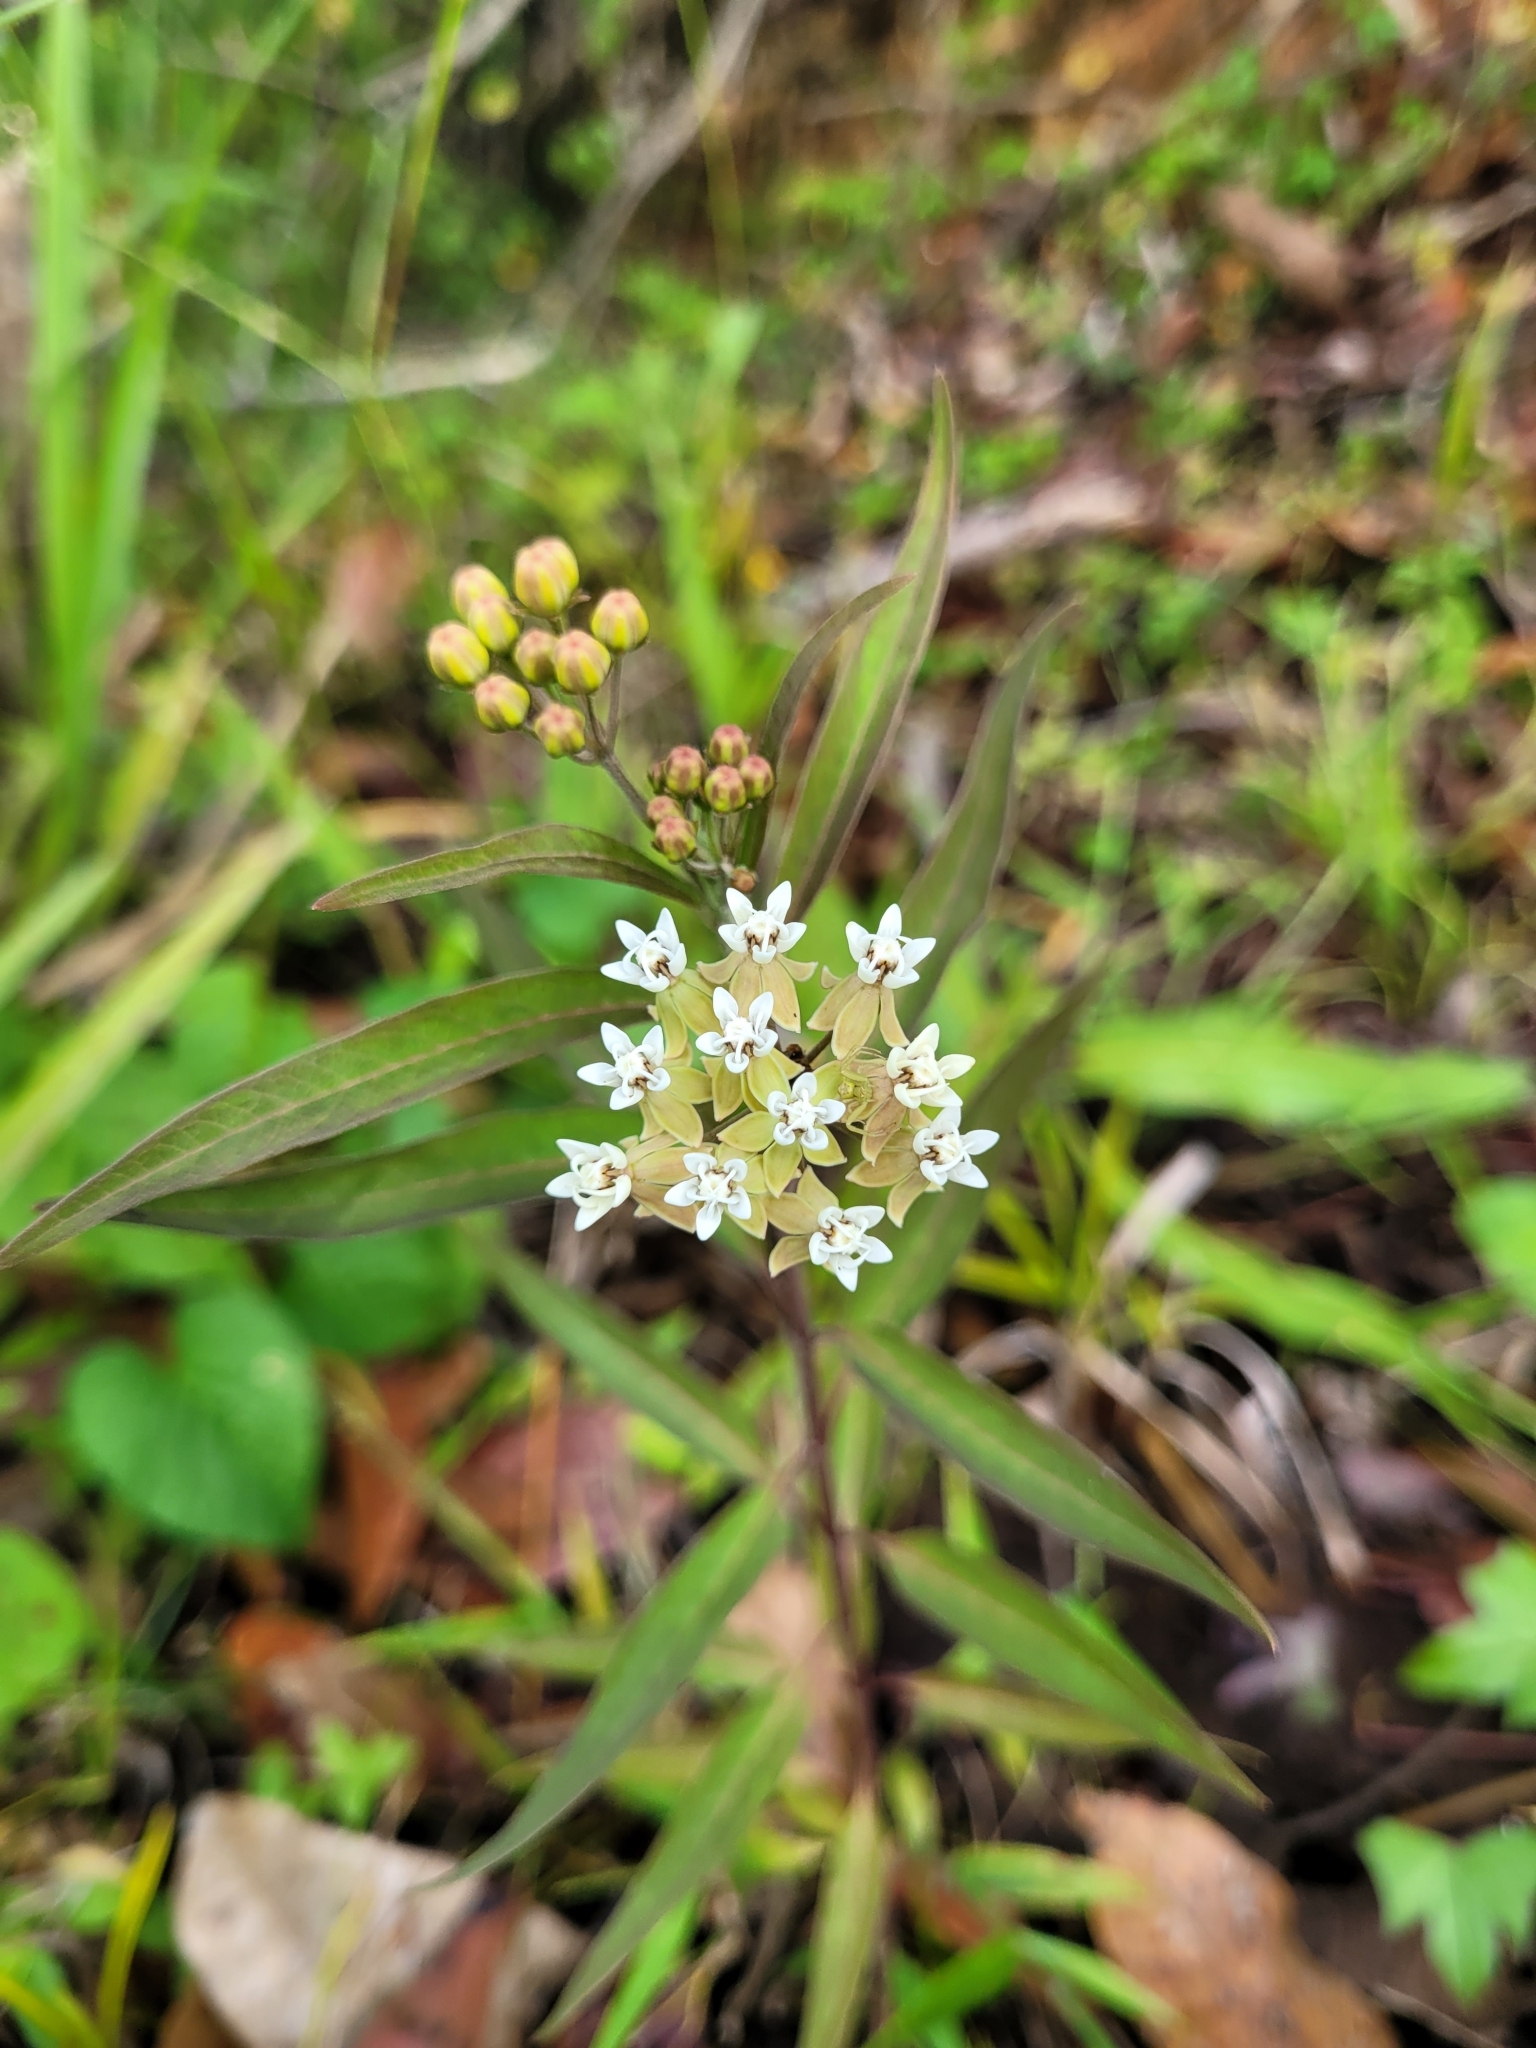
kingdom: Plantae
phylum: Tracheophyta
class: Magnoliopsida
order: Gentianales
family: Apocynaceae
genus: Asclepias
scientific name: Asclepias nivea
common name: Ipecacuanha
